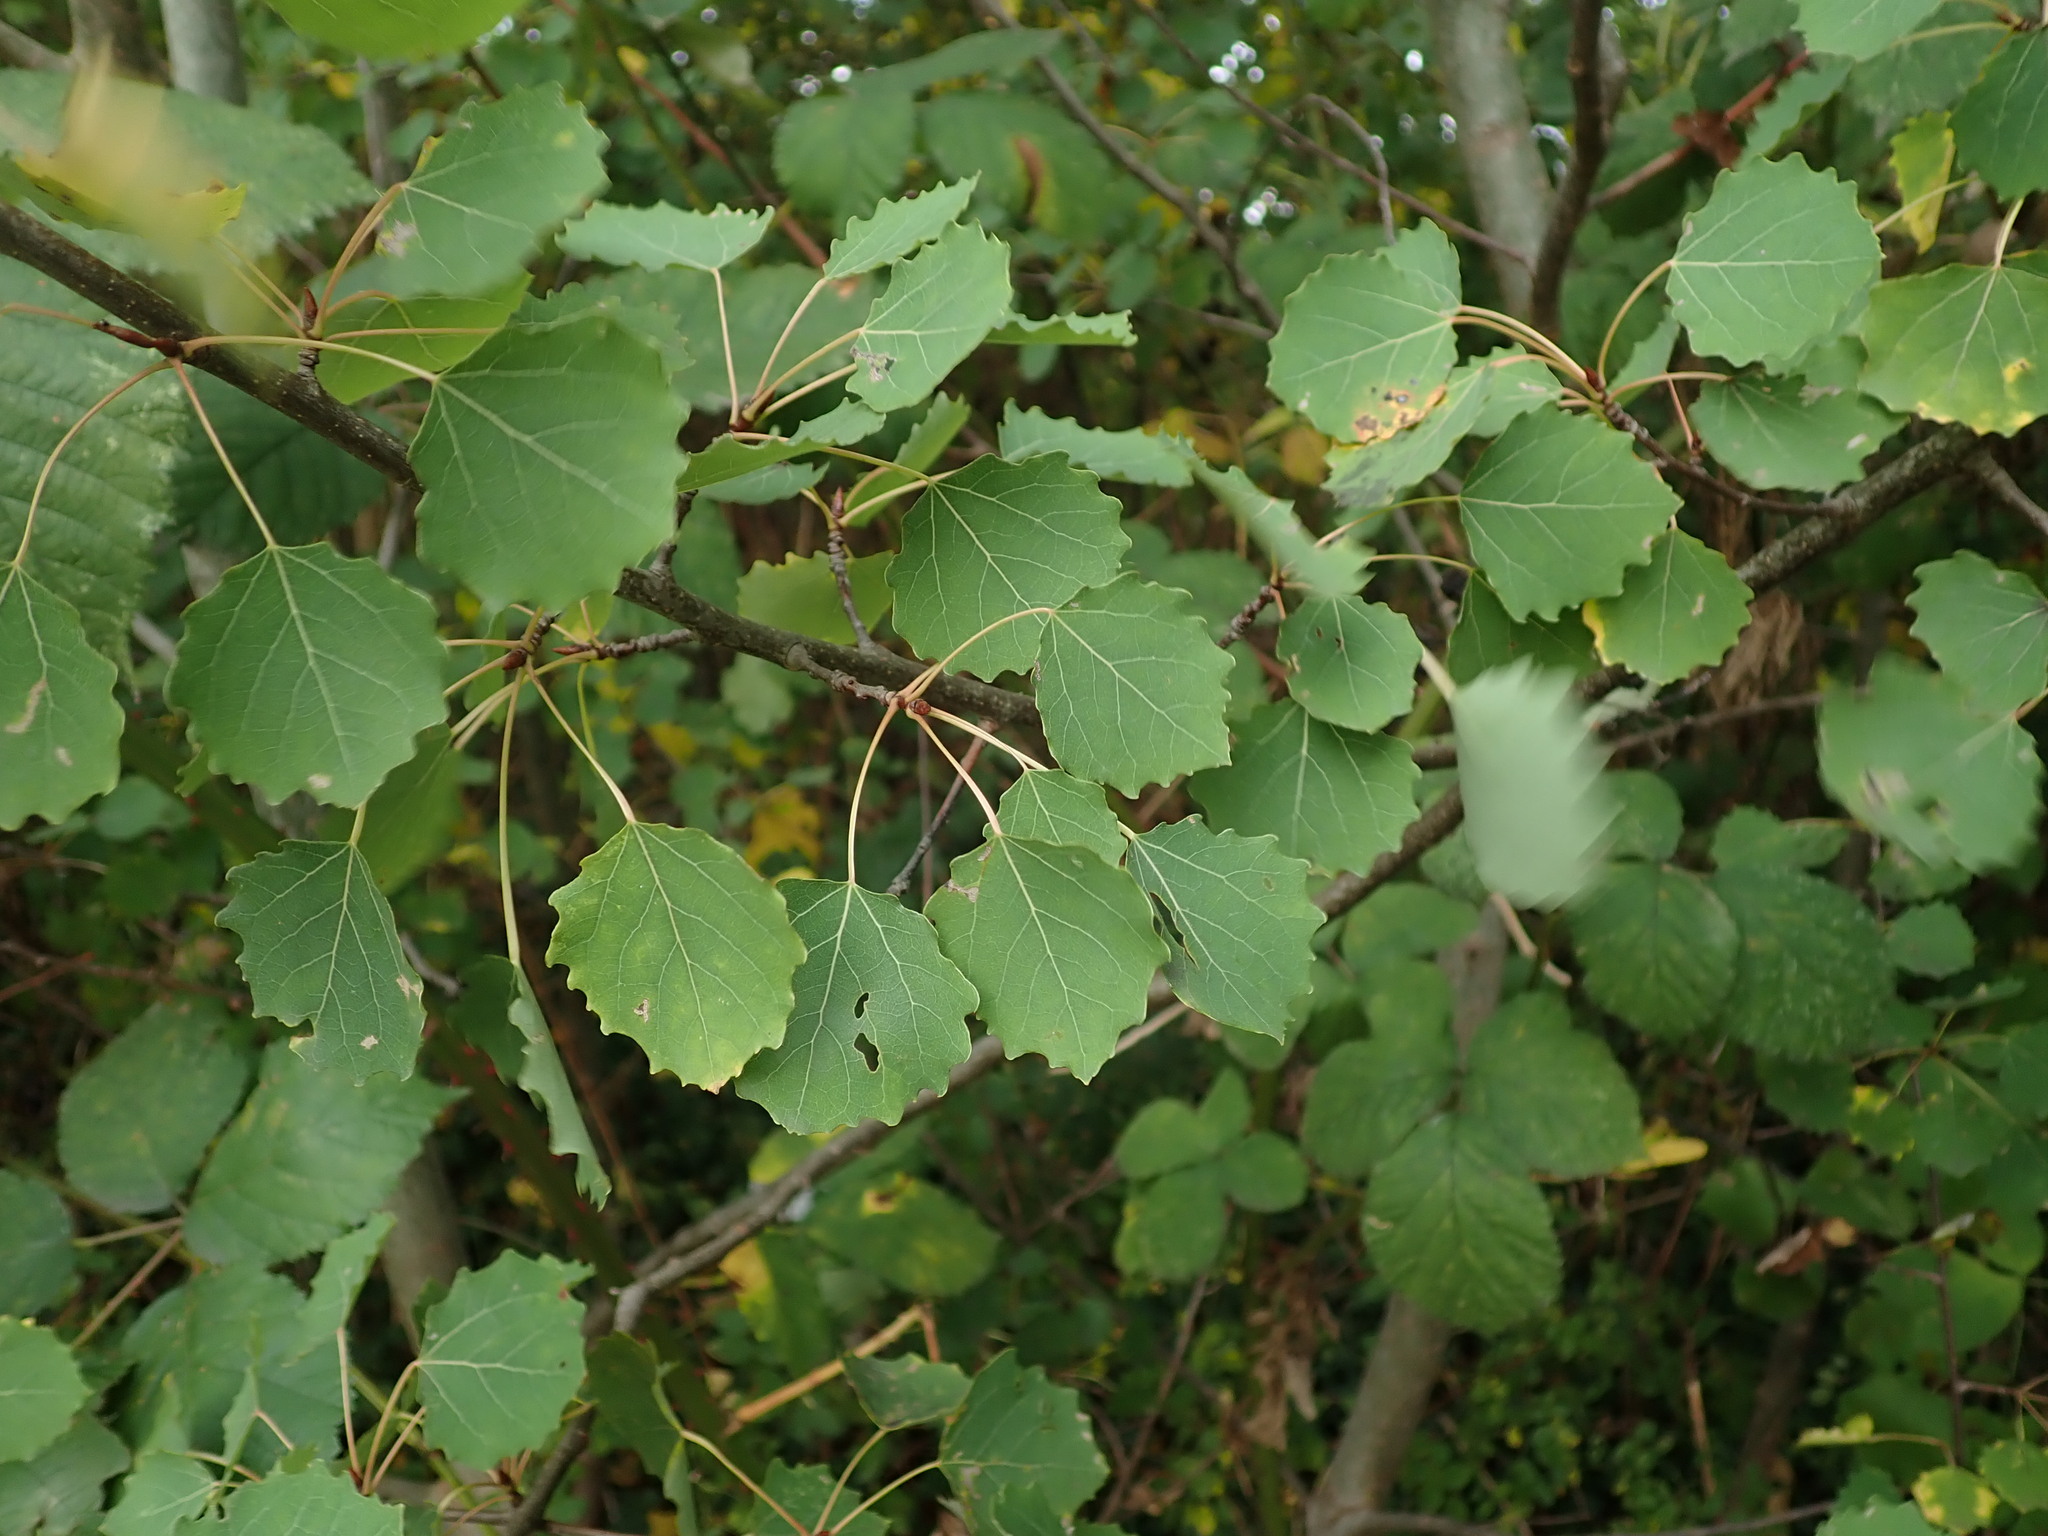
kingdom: Plantae
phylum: Tracheophyta
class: Magnoliopsida
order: Malpighiales
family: Salicaceae
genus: Populus
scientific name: Populus tremula
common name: European aspen
